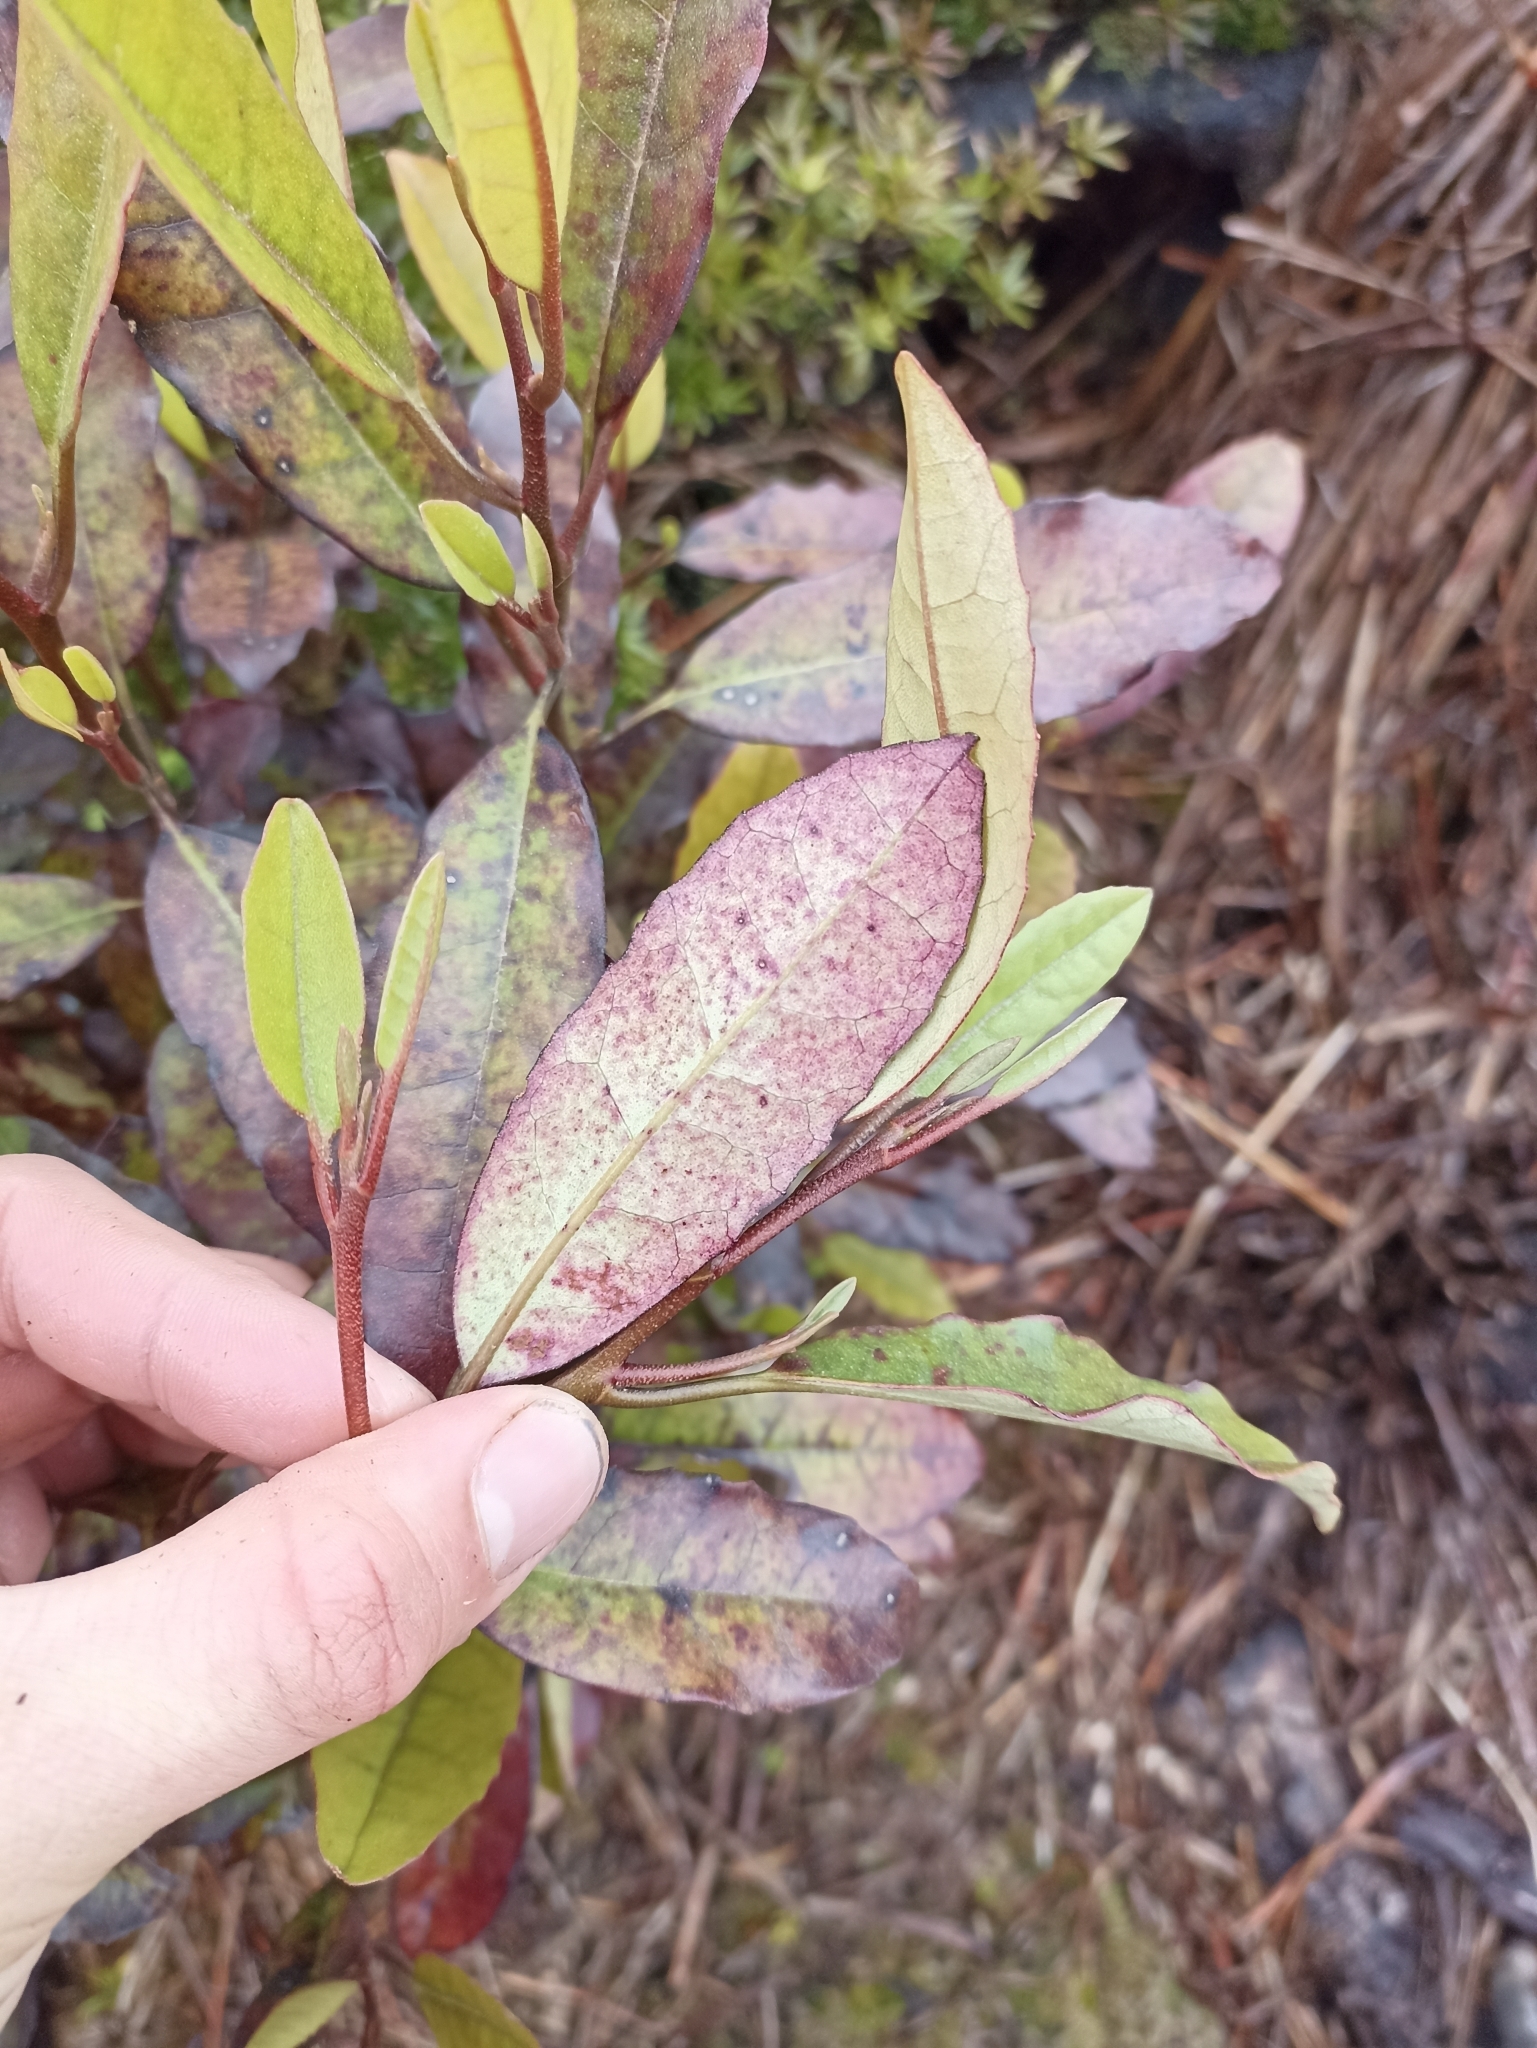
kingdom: Plantae
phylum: Tracheophyta
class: Magnoliopsida
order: Paracryphiales
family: Paracryphiaceae
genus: Quintinia
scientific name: Quintinia serrata
